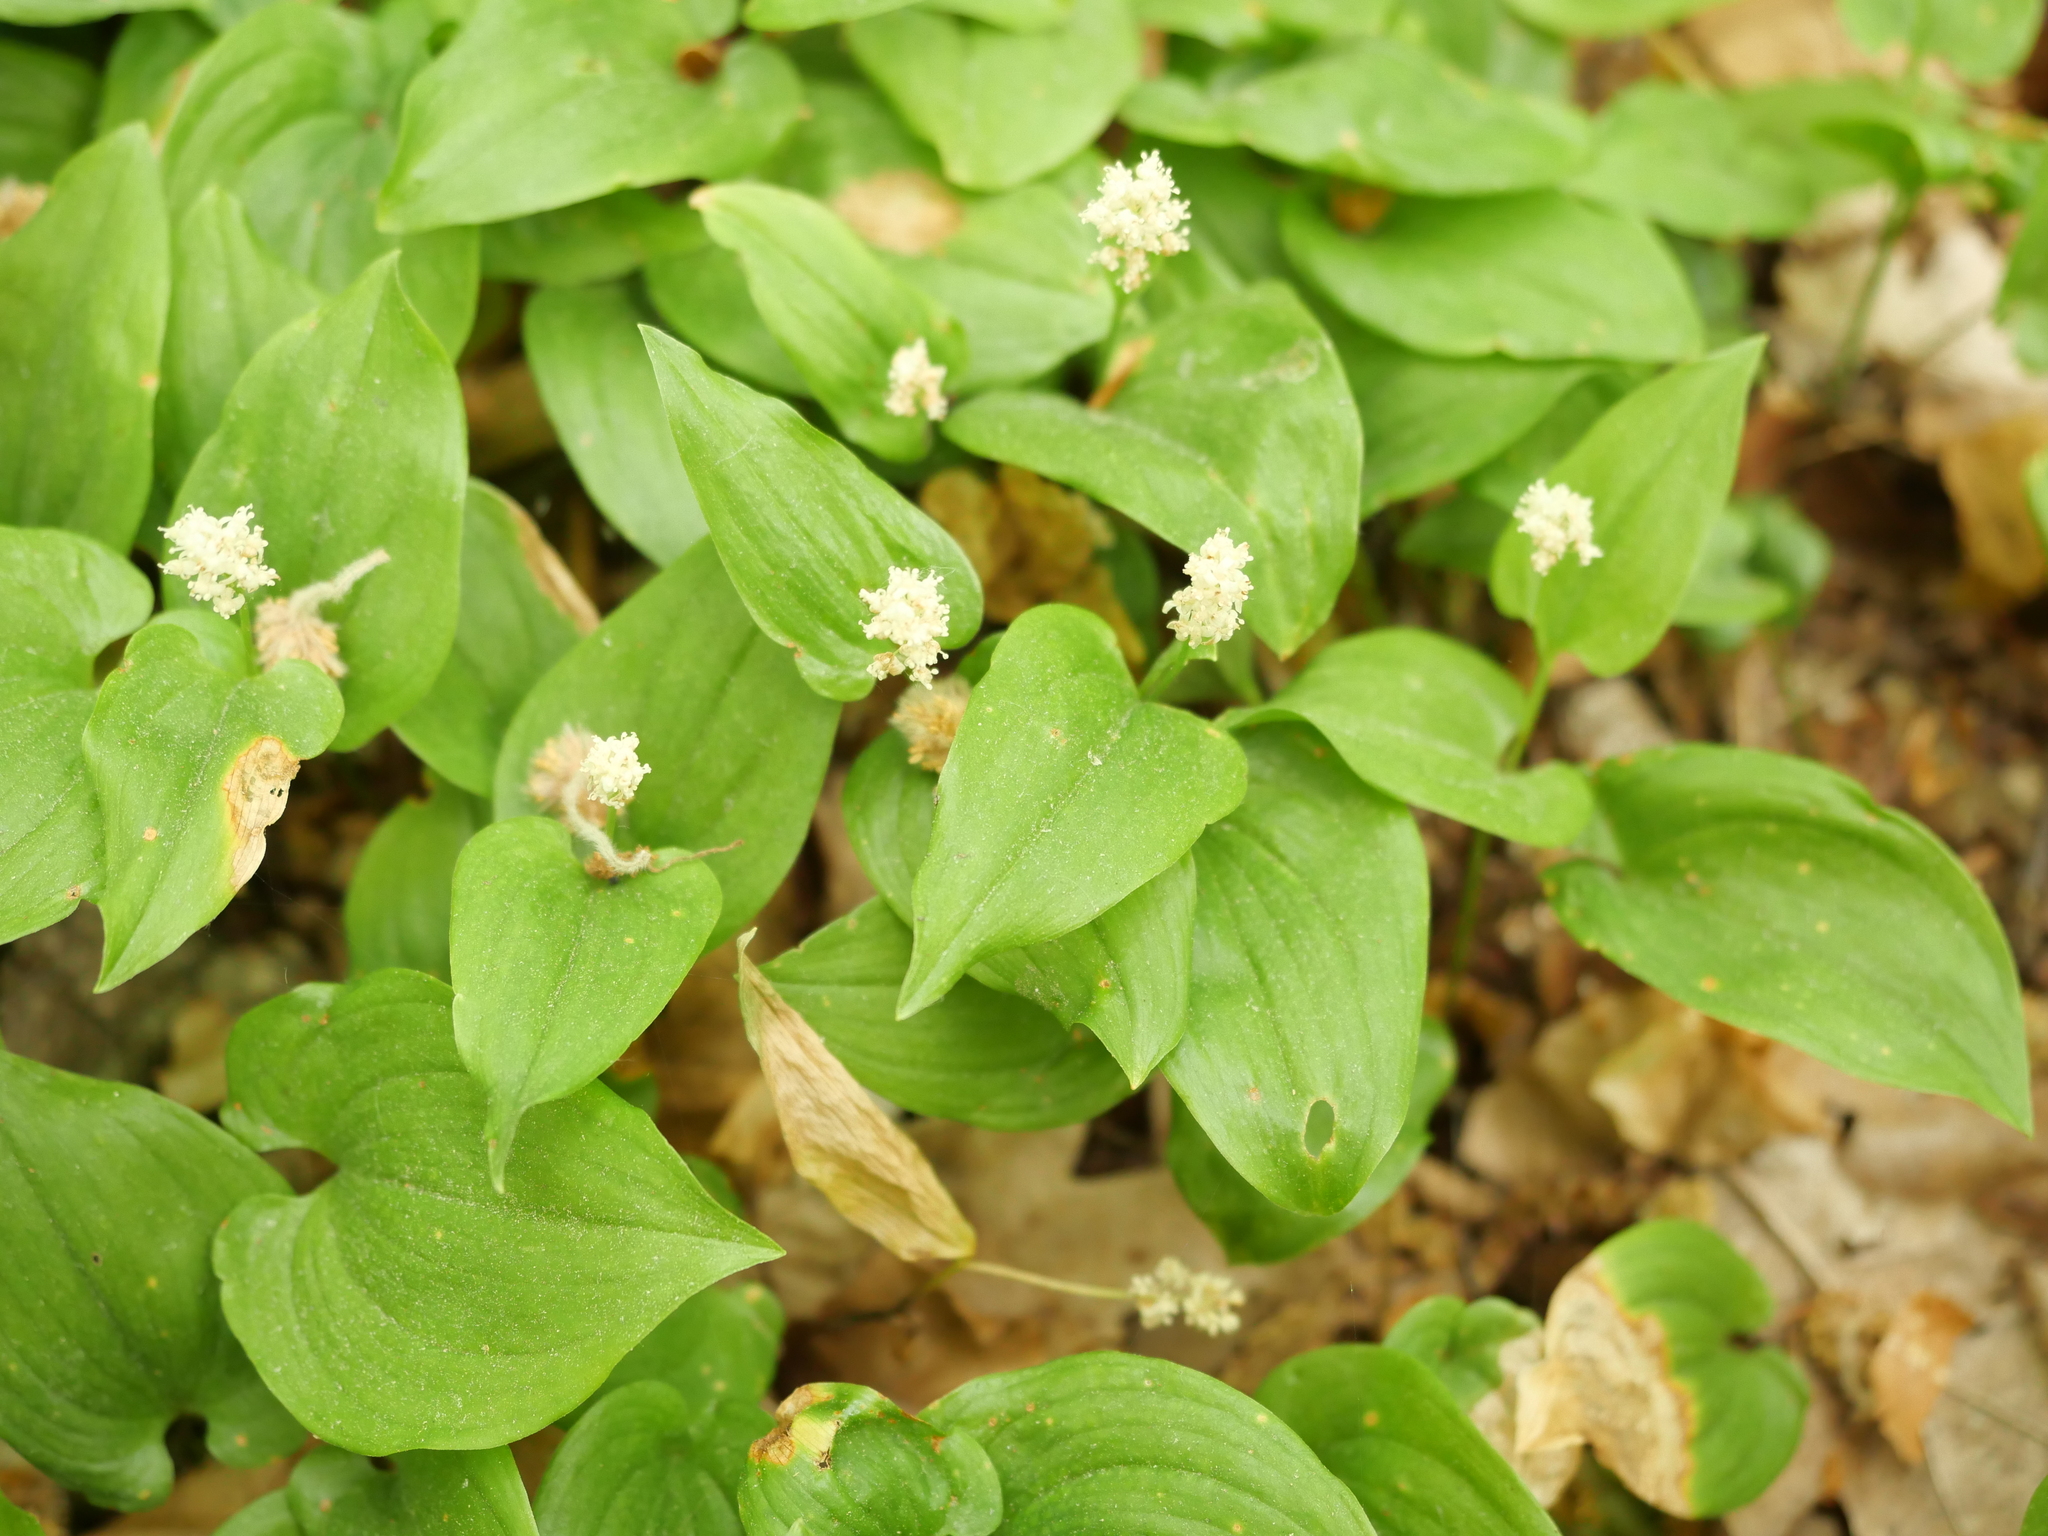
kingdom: Plantae
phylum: Tracheophyta
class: Liliopsida
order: Asparagales
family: Asparagaceae
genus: Maianthemum
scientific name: Maianthemum bifolium
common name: May lily
